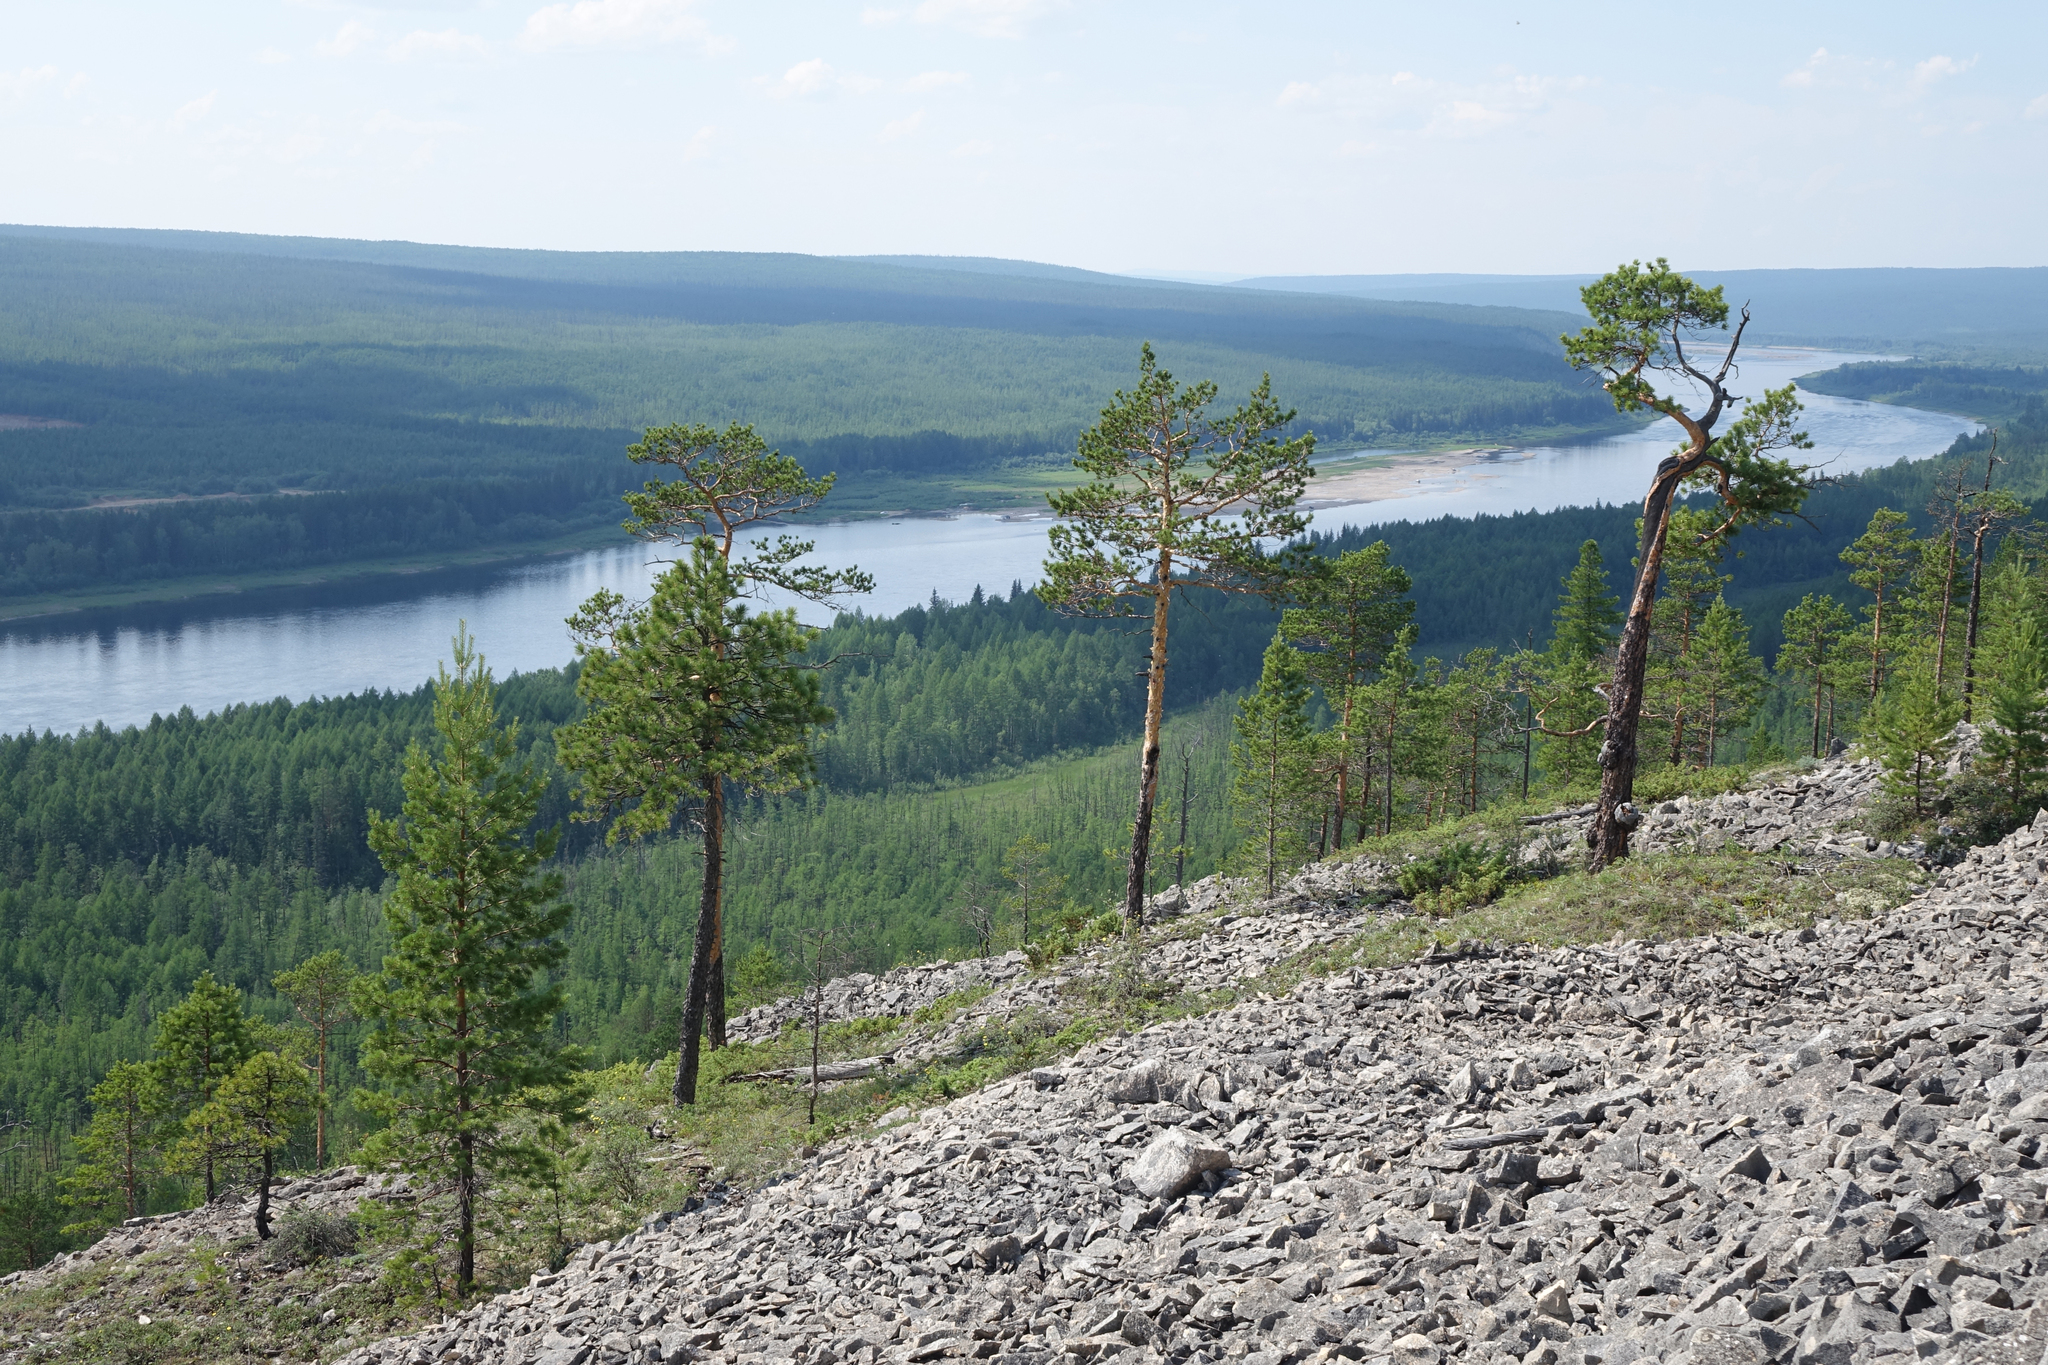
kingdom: Plantae
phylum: Tracheophyta
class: Pinopsida
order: Pinales
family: Pinaceae
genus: Pinus
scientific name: Pinus sylvestris
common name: Scots pine
